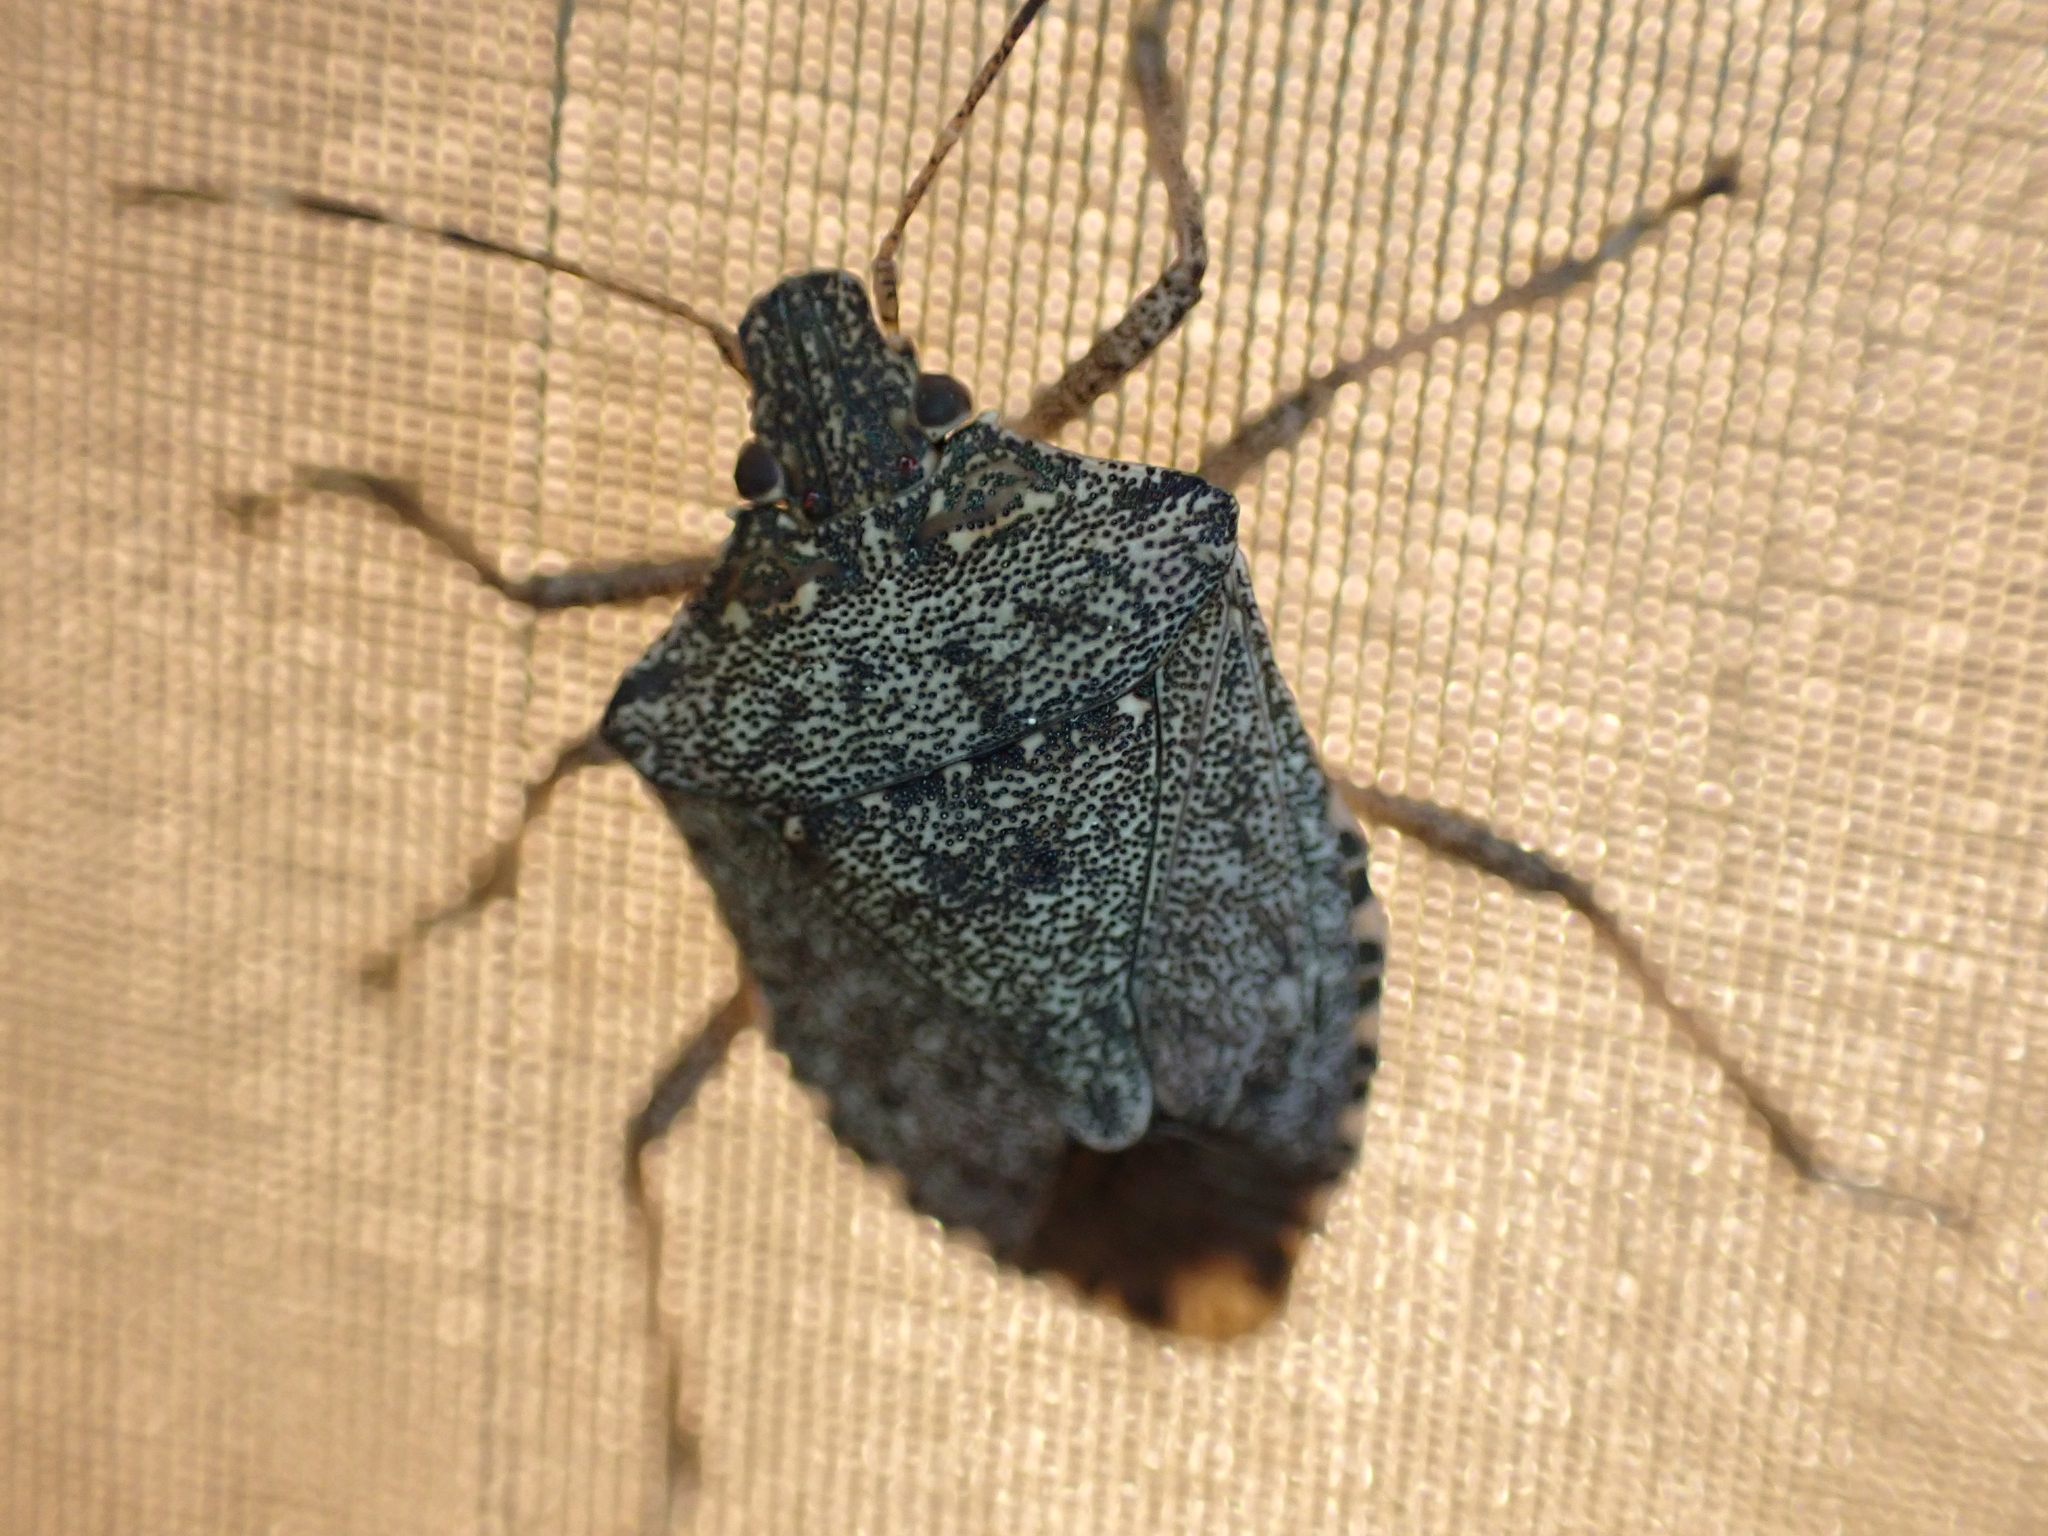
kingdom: Animalia
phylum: Arthropoda
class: Insecta
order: Hemiptera
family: Pentatomidae
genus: Halyomorpha
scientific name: Halyomorpha halys
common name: Brown marmorated stink bug
